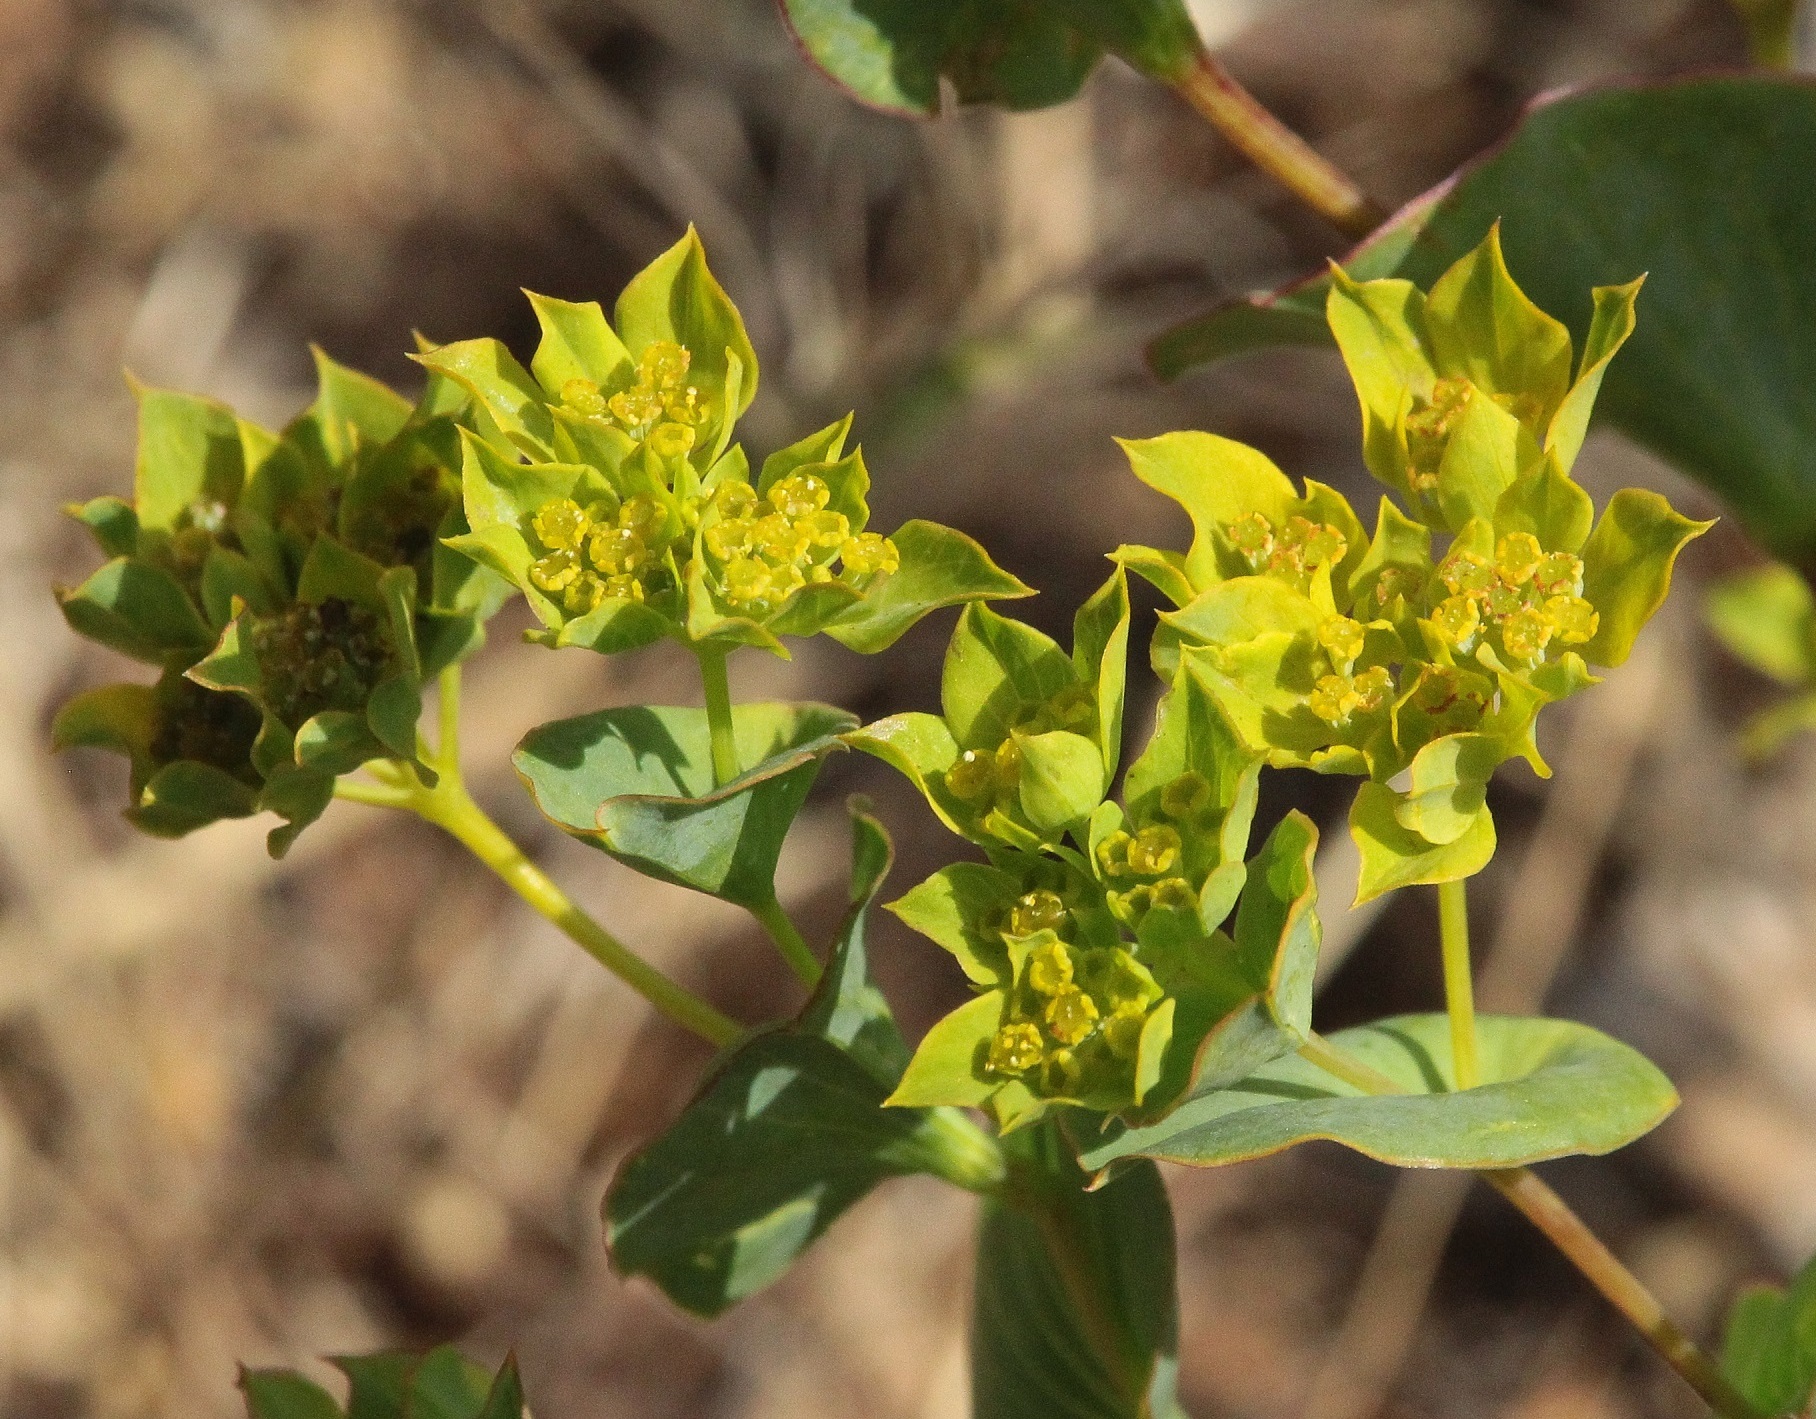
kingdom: Plantae
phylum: Tracheophyta
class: Magnoliopsida
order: Apiales
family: Apiaceae
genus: Bupleurum
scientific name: Bupleurum rotundifolium
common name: Thorow-wax
